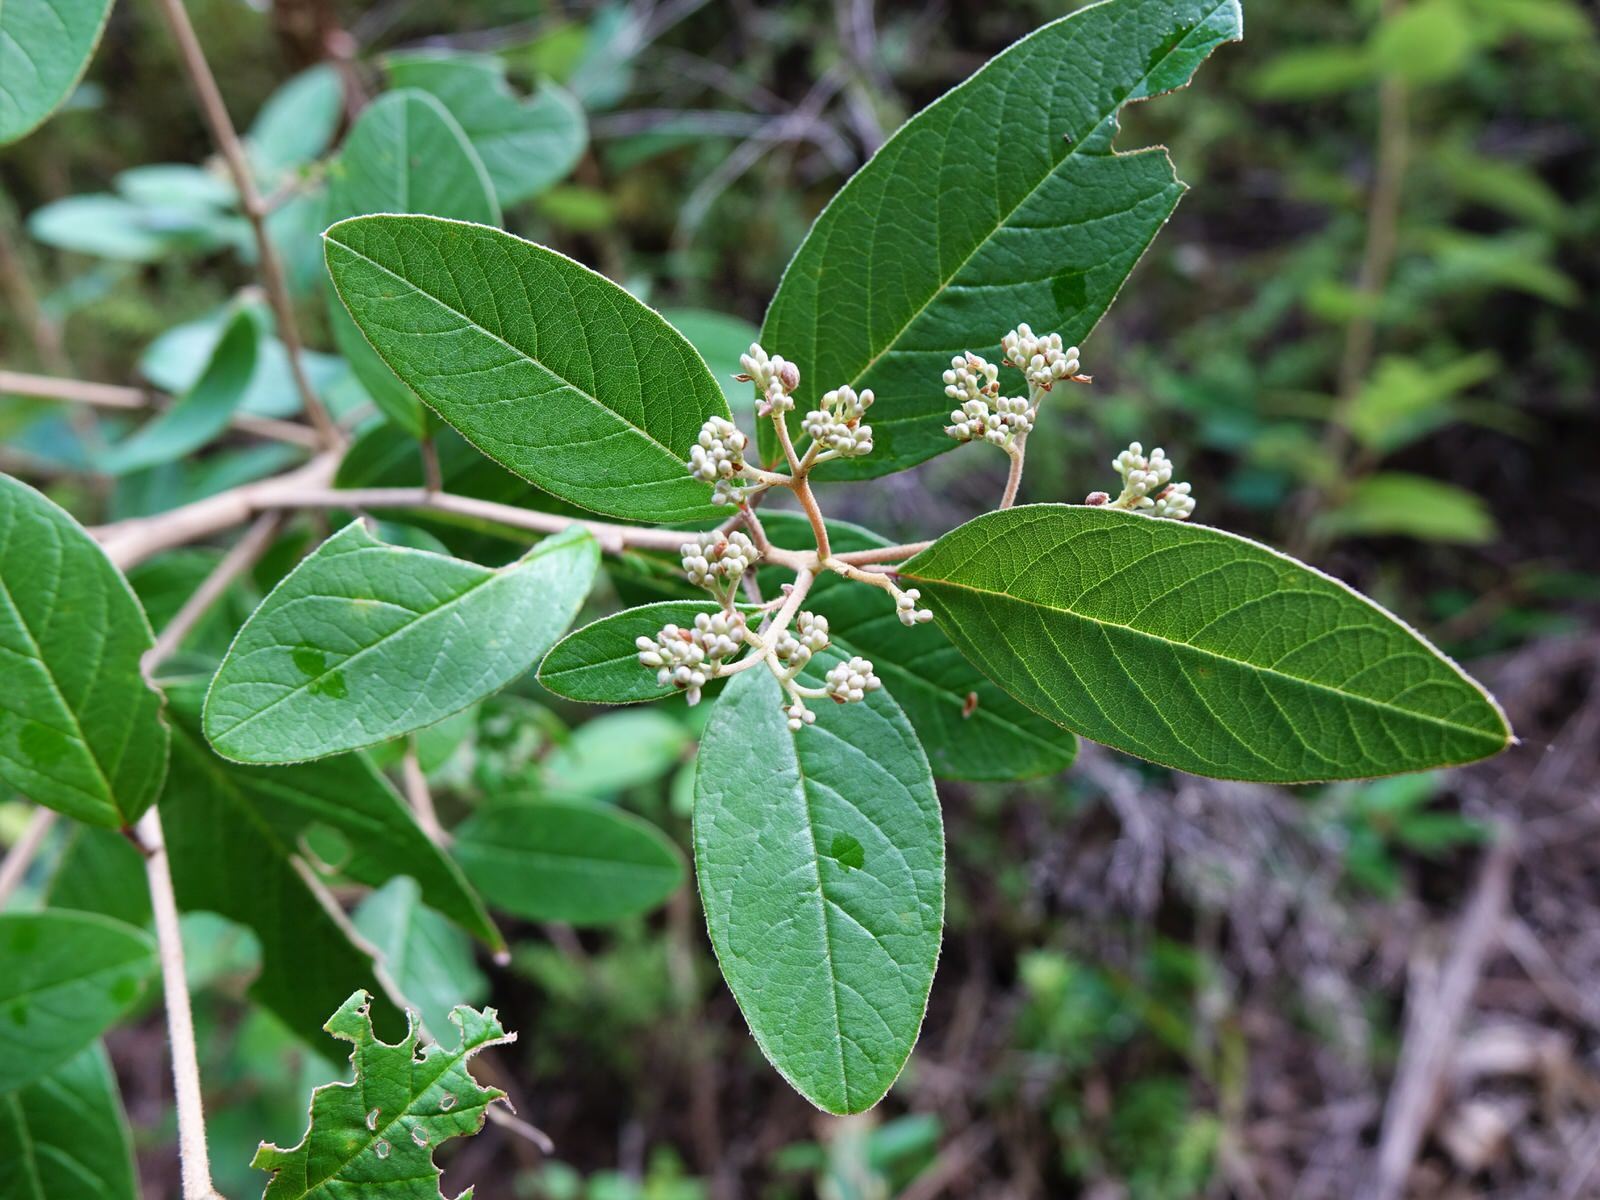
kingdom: Plantae
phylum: Tracheophyta
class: Magnoliopsida
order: Rosales
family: Rhamnaceae
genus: Pomaderris
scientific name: Pomaderris kumeraho
